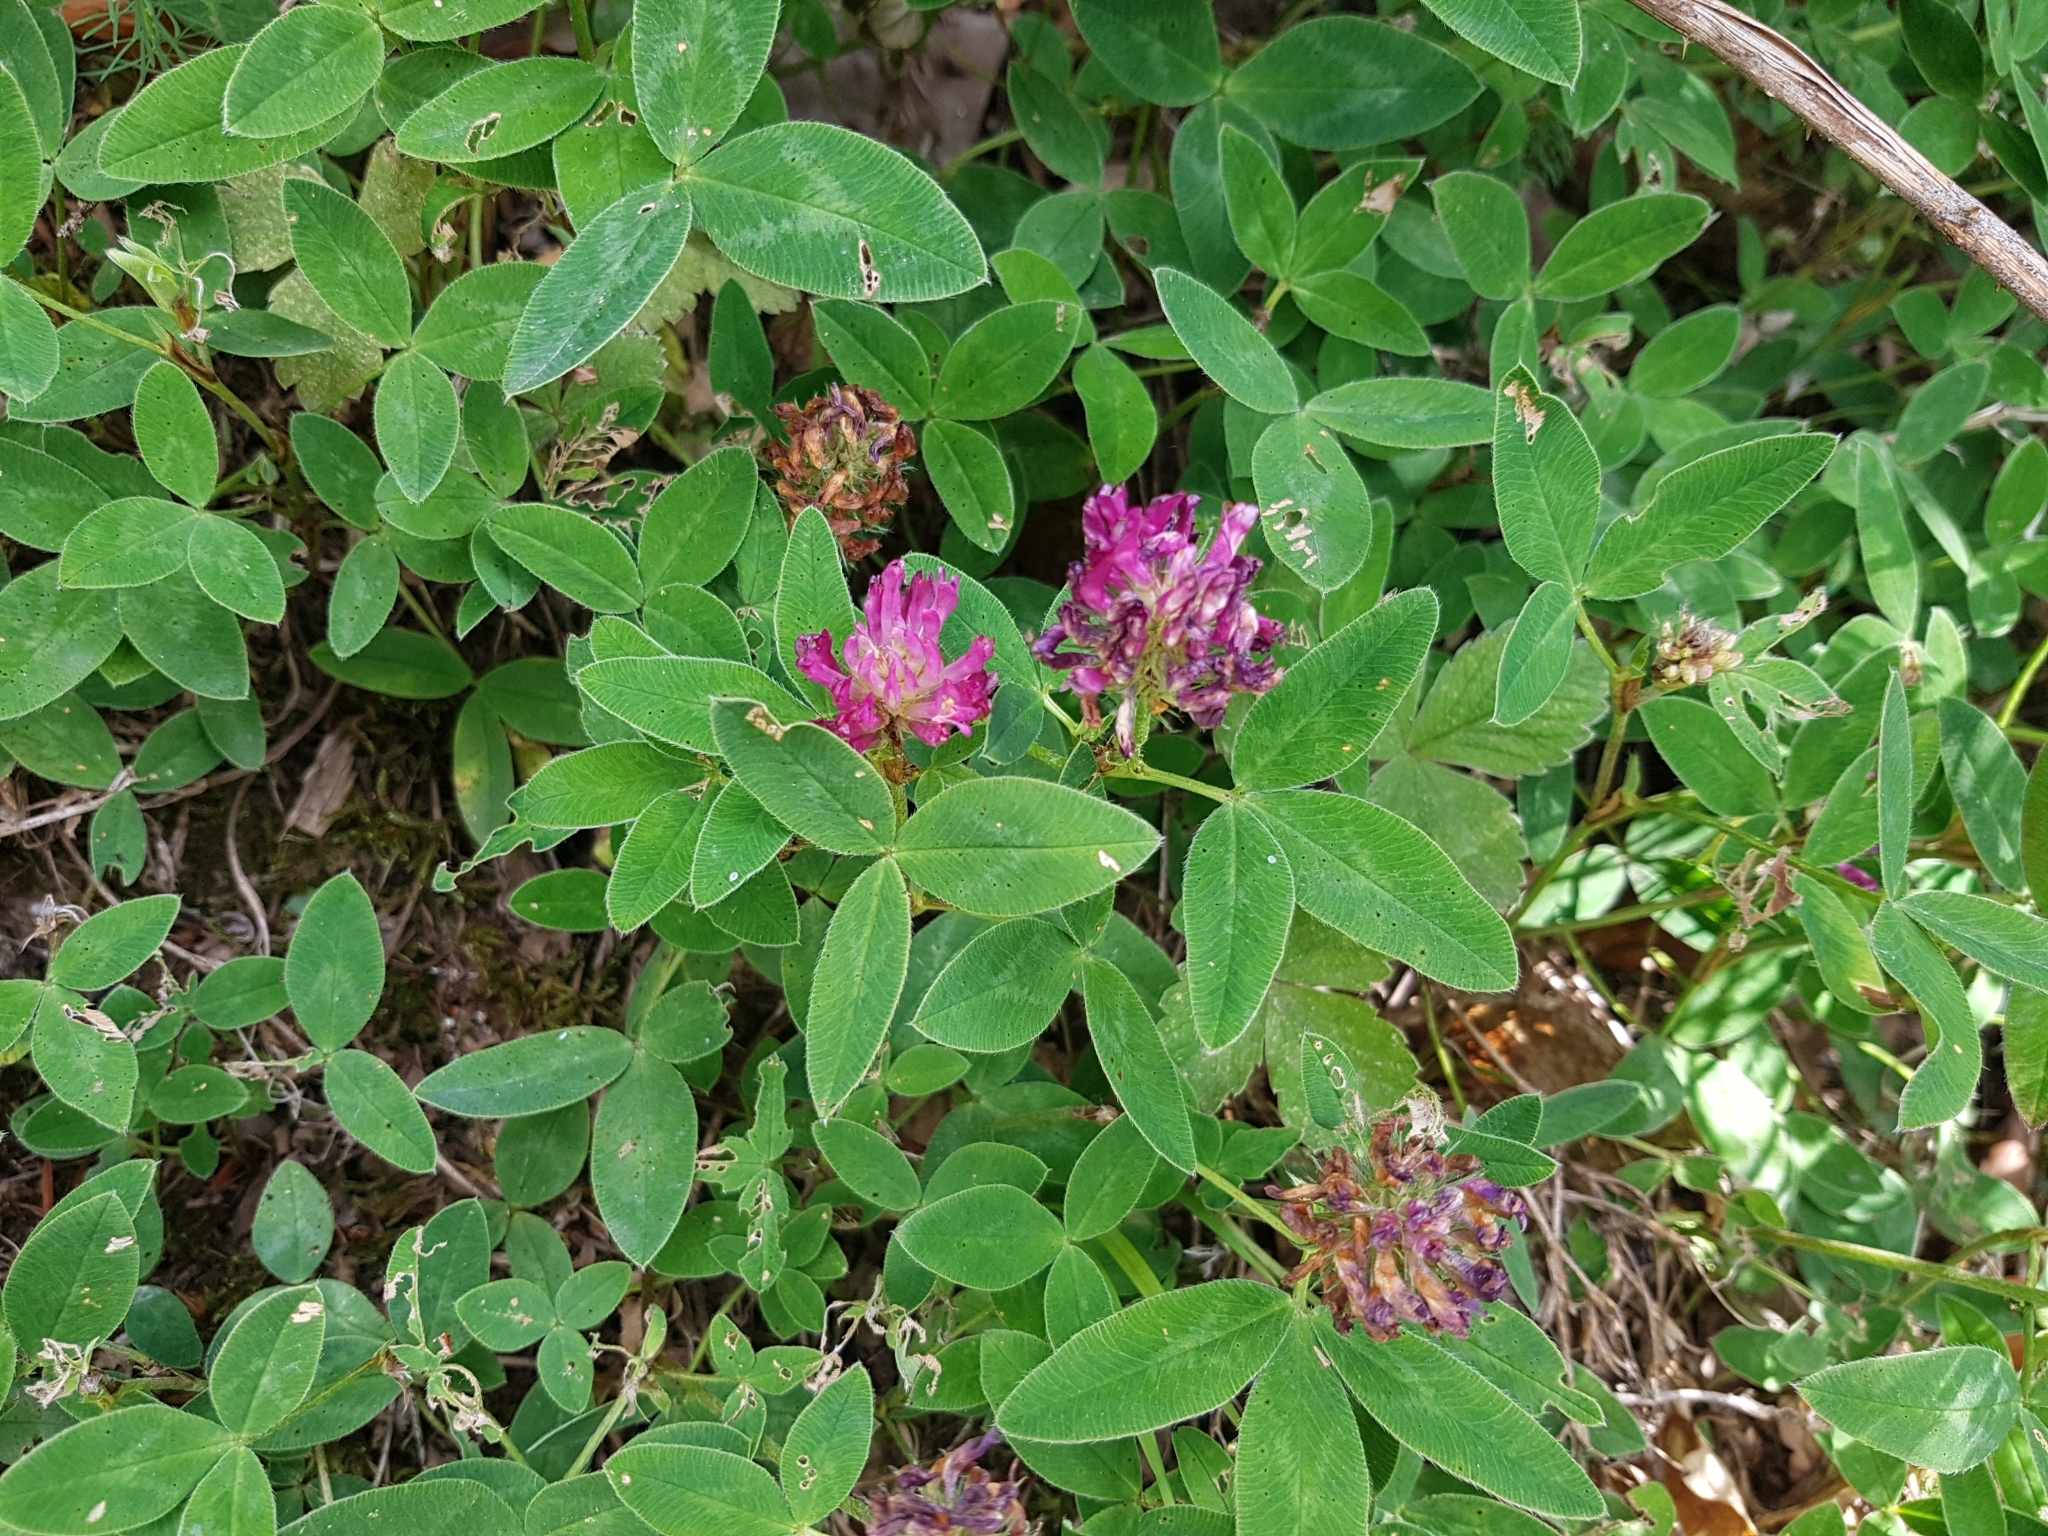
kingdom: Plantae
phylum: Tracheophyta
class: Magnoliopsida
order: Fabales
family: Fabaceae
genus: Trifolium
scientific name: Trifolium medium
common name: Zigzag clover
